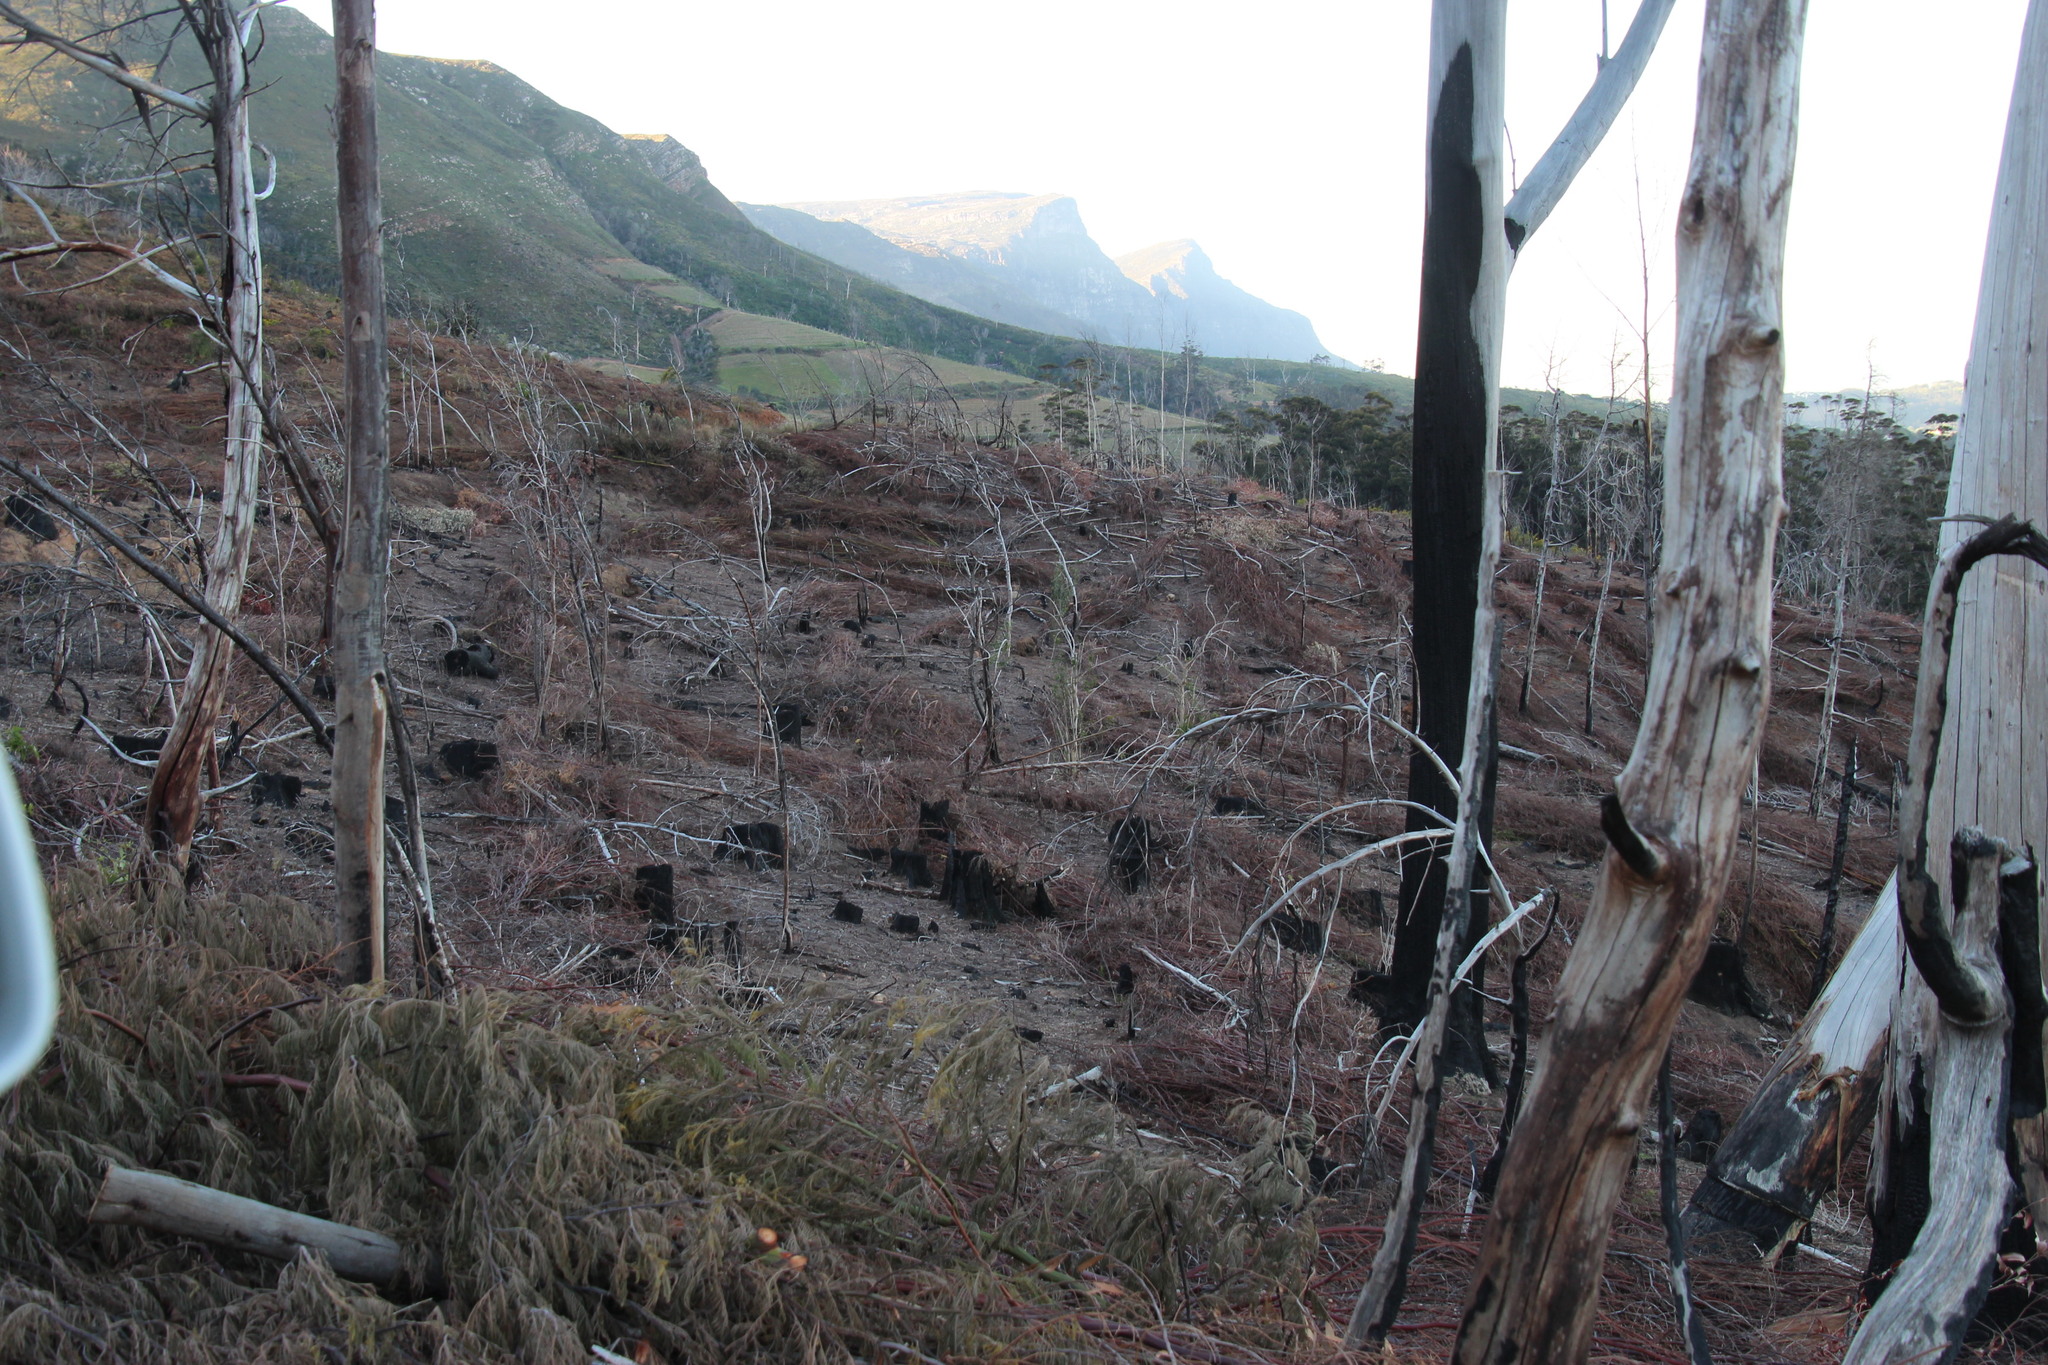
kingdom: Plantae
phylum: Tracheophyta
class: Magnoliopsida
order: Fabales
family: Fabaceae
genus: Acacia
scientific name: Acacia mearnsii
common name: Black wattle
